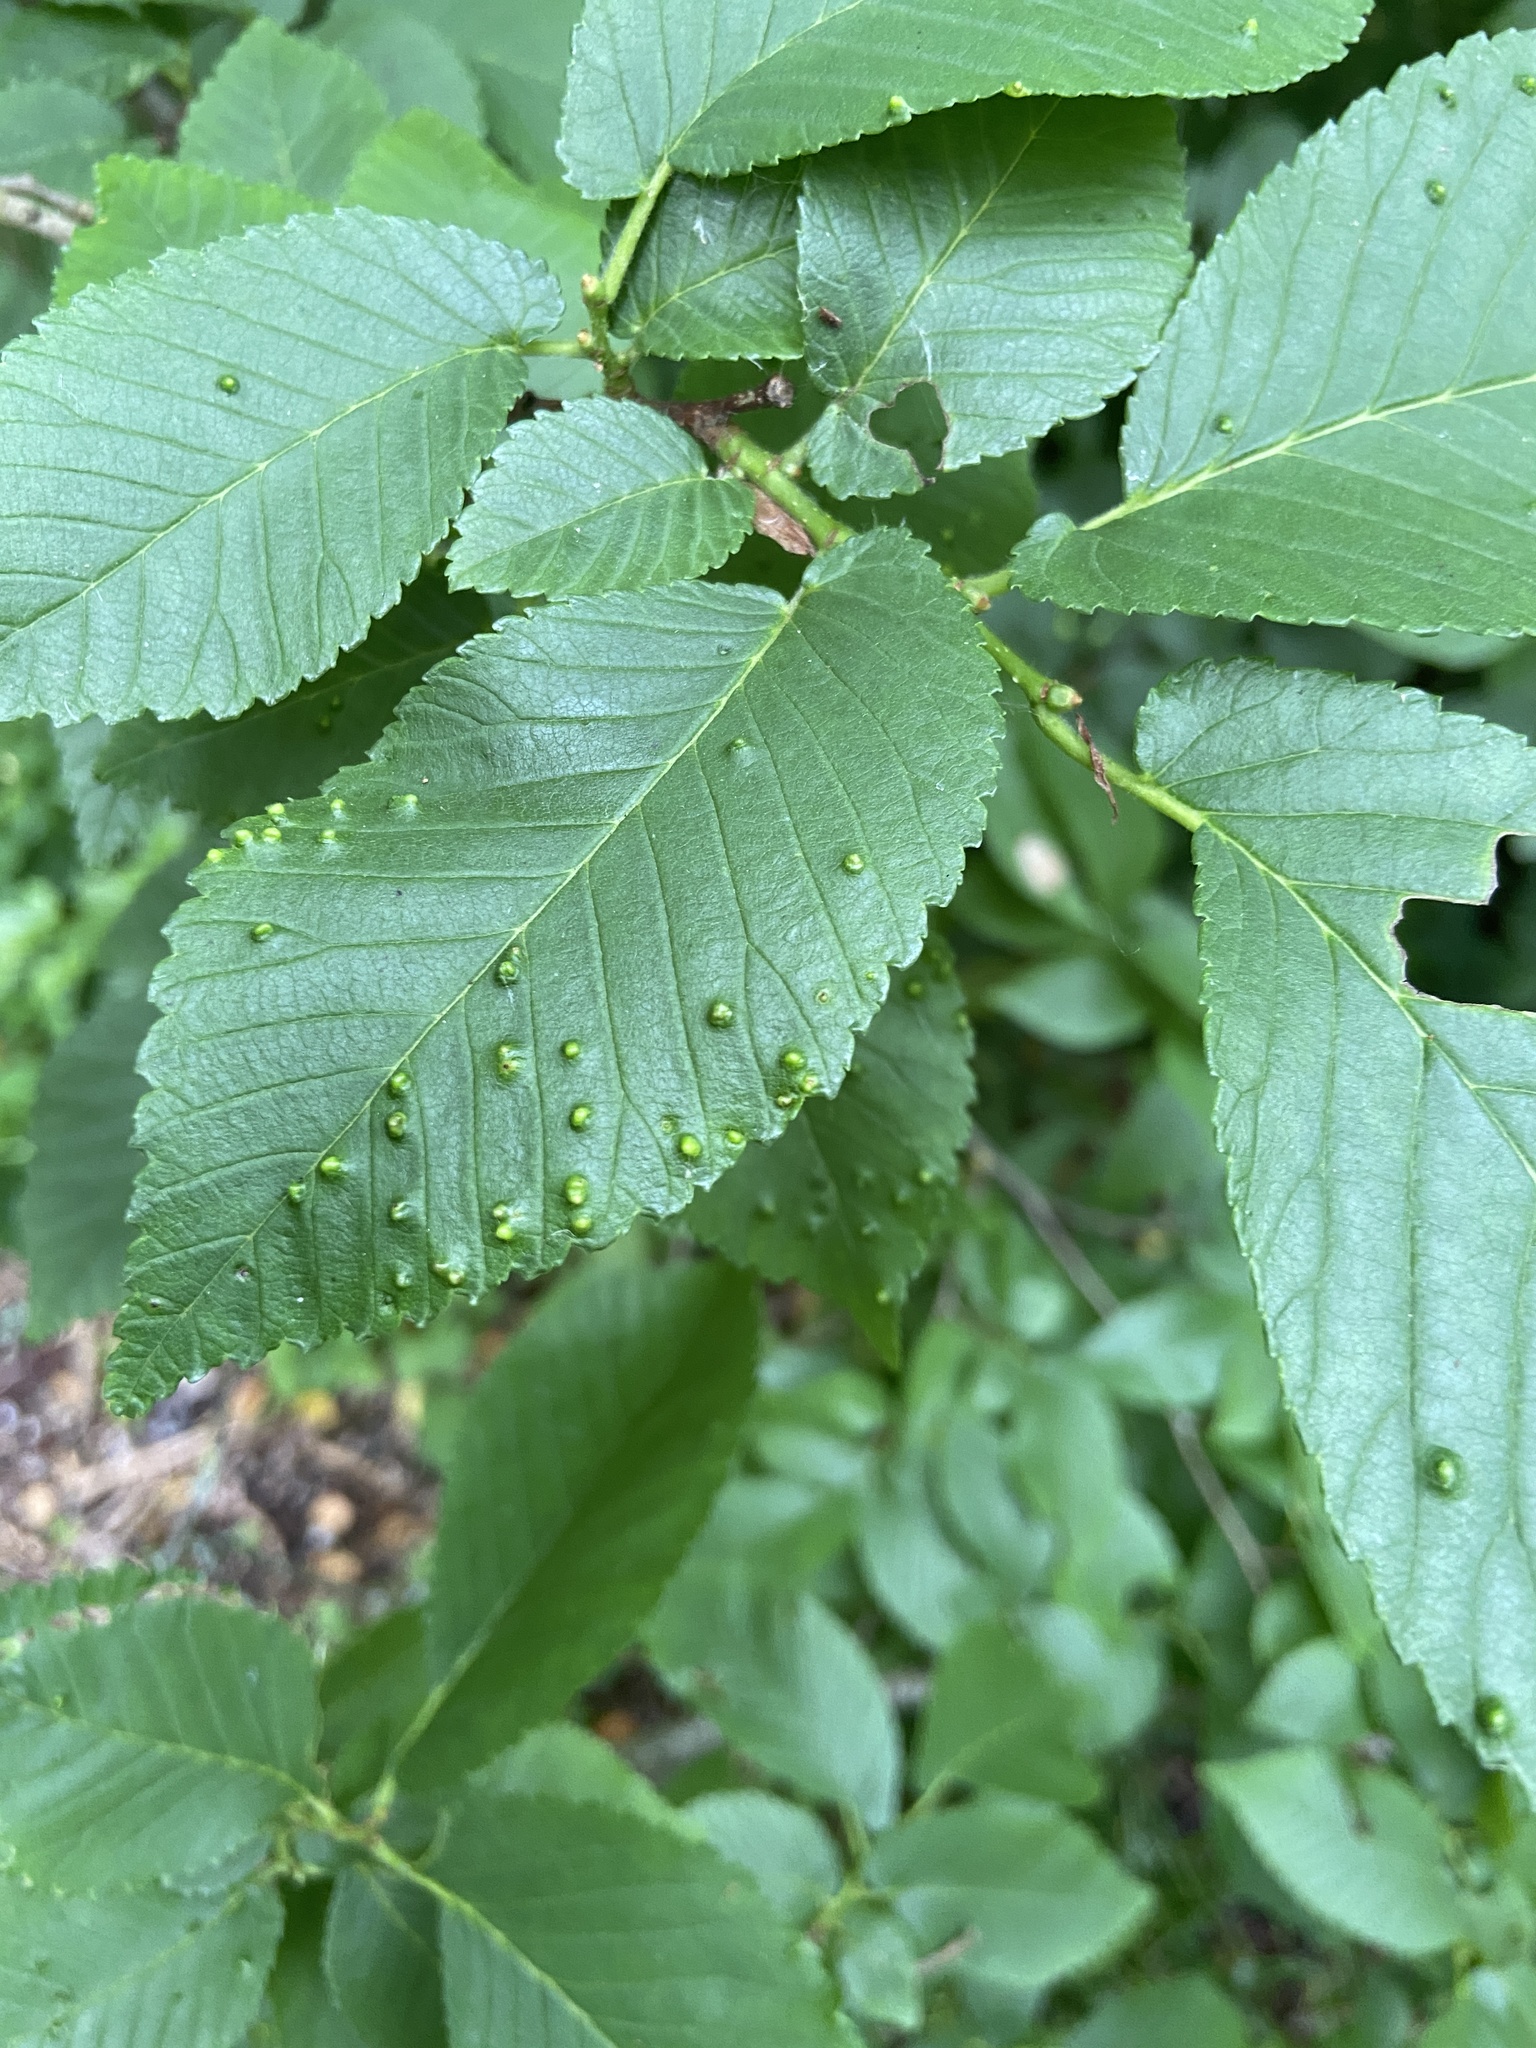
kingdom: Animalia
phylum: Arthropoda
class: Arachnida
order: Trombidiformes
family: Eriophyidae
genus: Aceria
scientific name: Aceria brevipunctata
